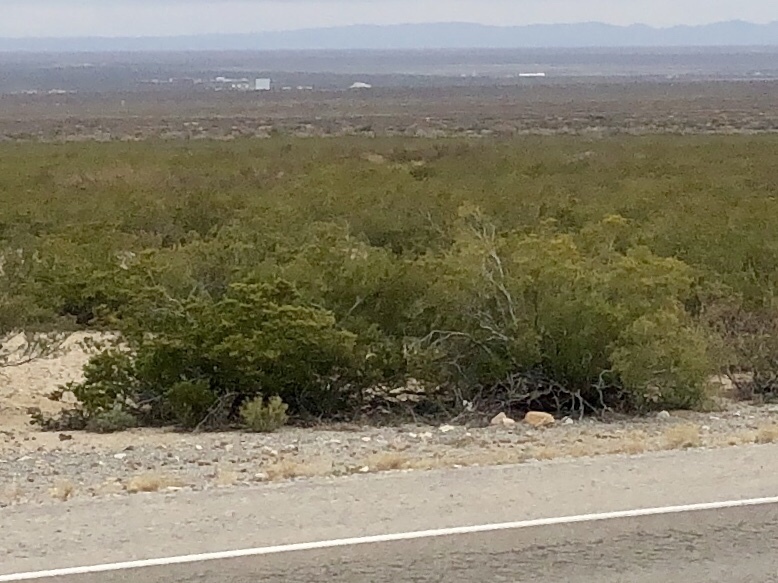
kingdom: Plantae
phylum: Tracheophyta
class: Magnoliopsida
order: Zygophyllales
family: Zygophyllaceae
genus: Larrea
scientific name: Larrea tridentata
